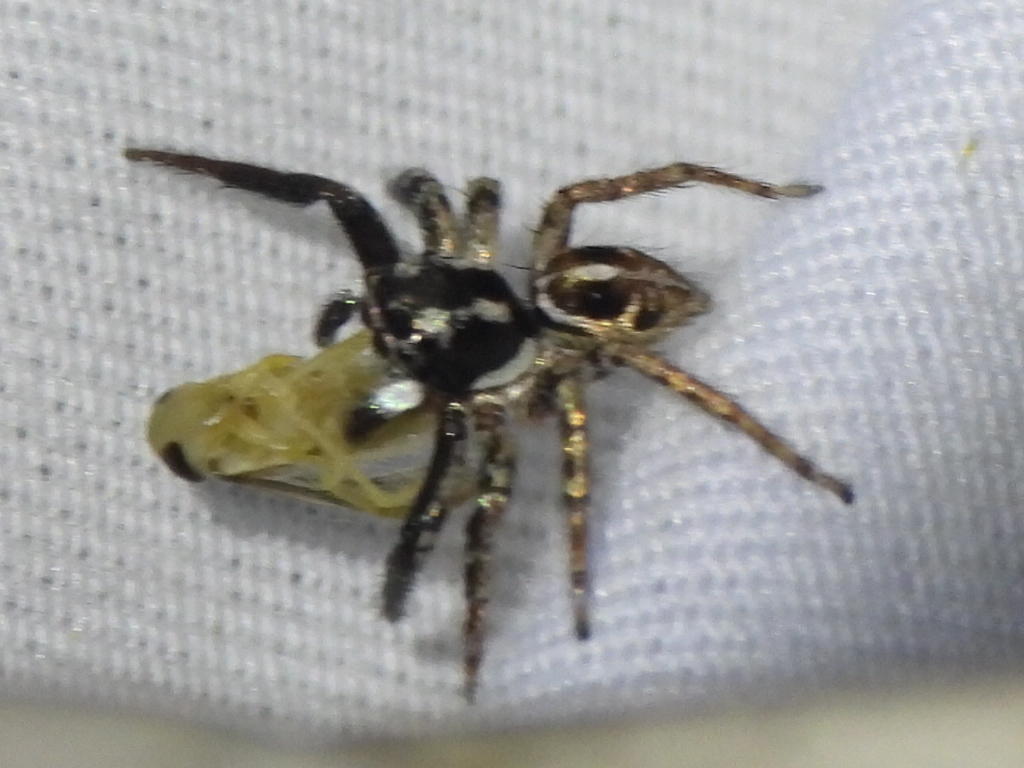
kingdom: Animalia
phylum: Arthropoda
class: Arachnida
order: Araneae
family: Salticidae
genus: Anasaitis
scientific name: Anasaitis canosa
